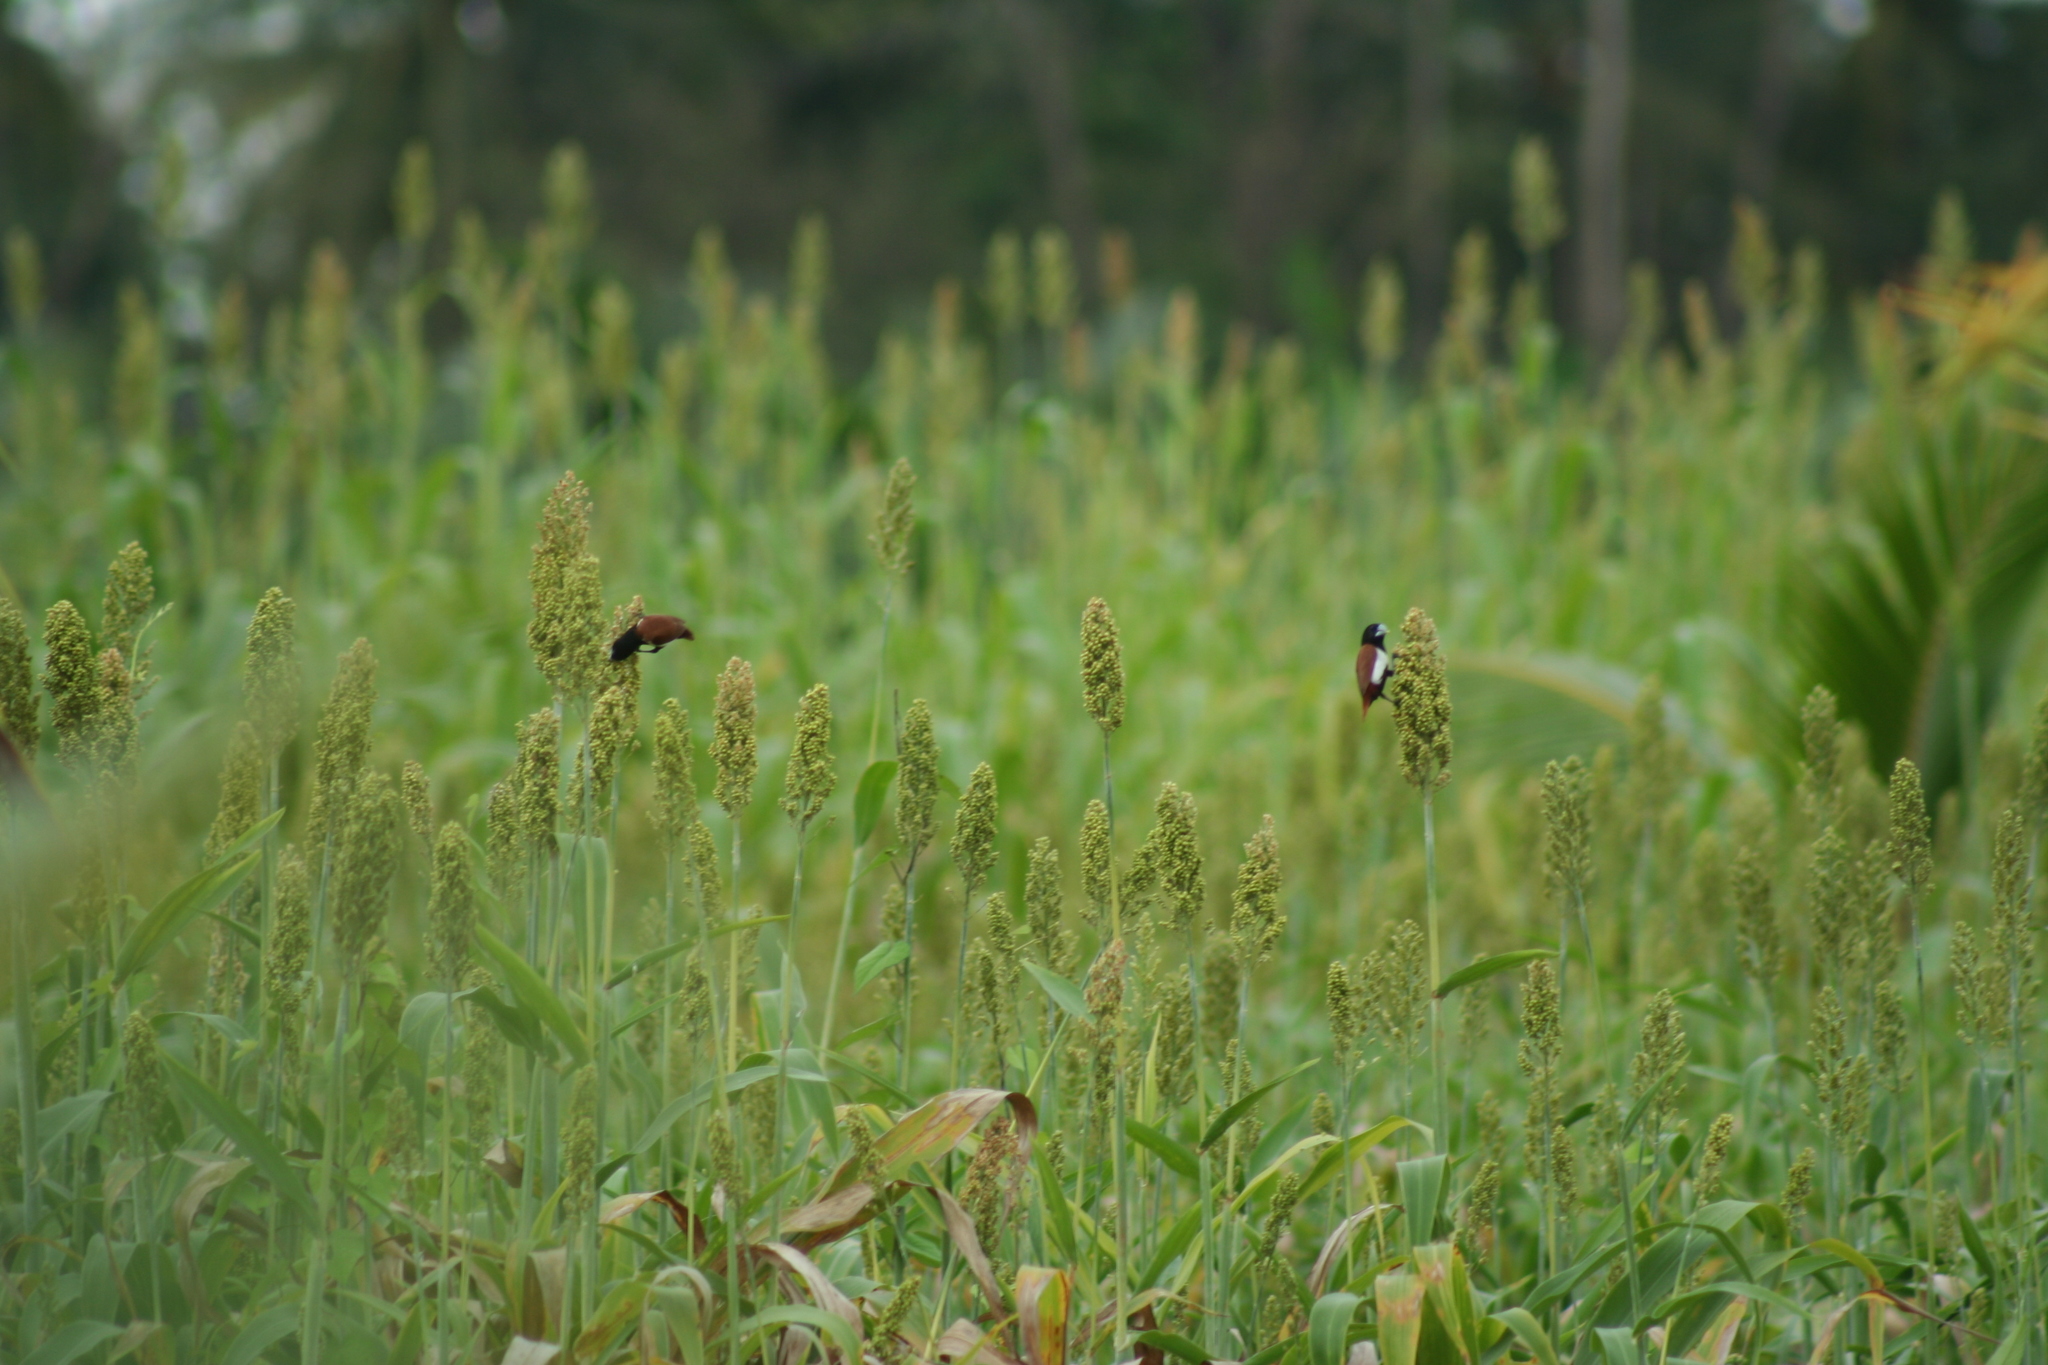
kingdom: Animalia
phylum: Chordata
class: Aves
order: Passeriformes
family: Estrildidae
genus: Lonchura
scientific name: Lonchura malacca
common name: Tricolored munia
